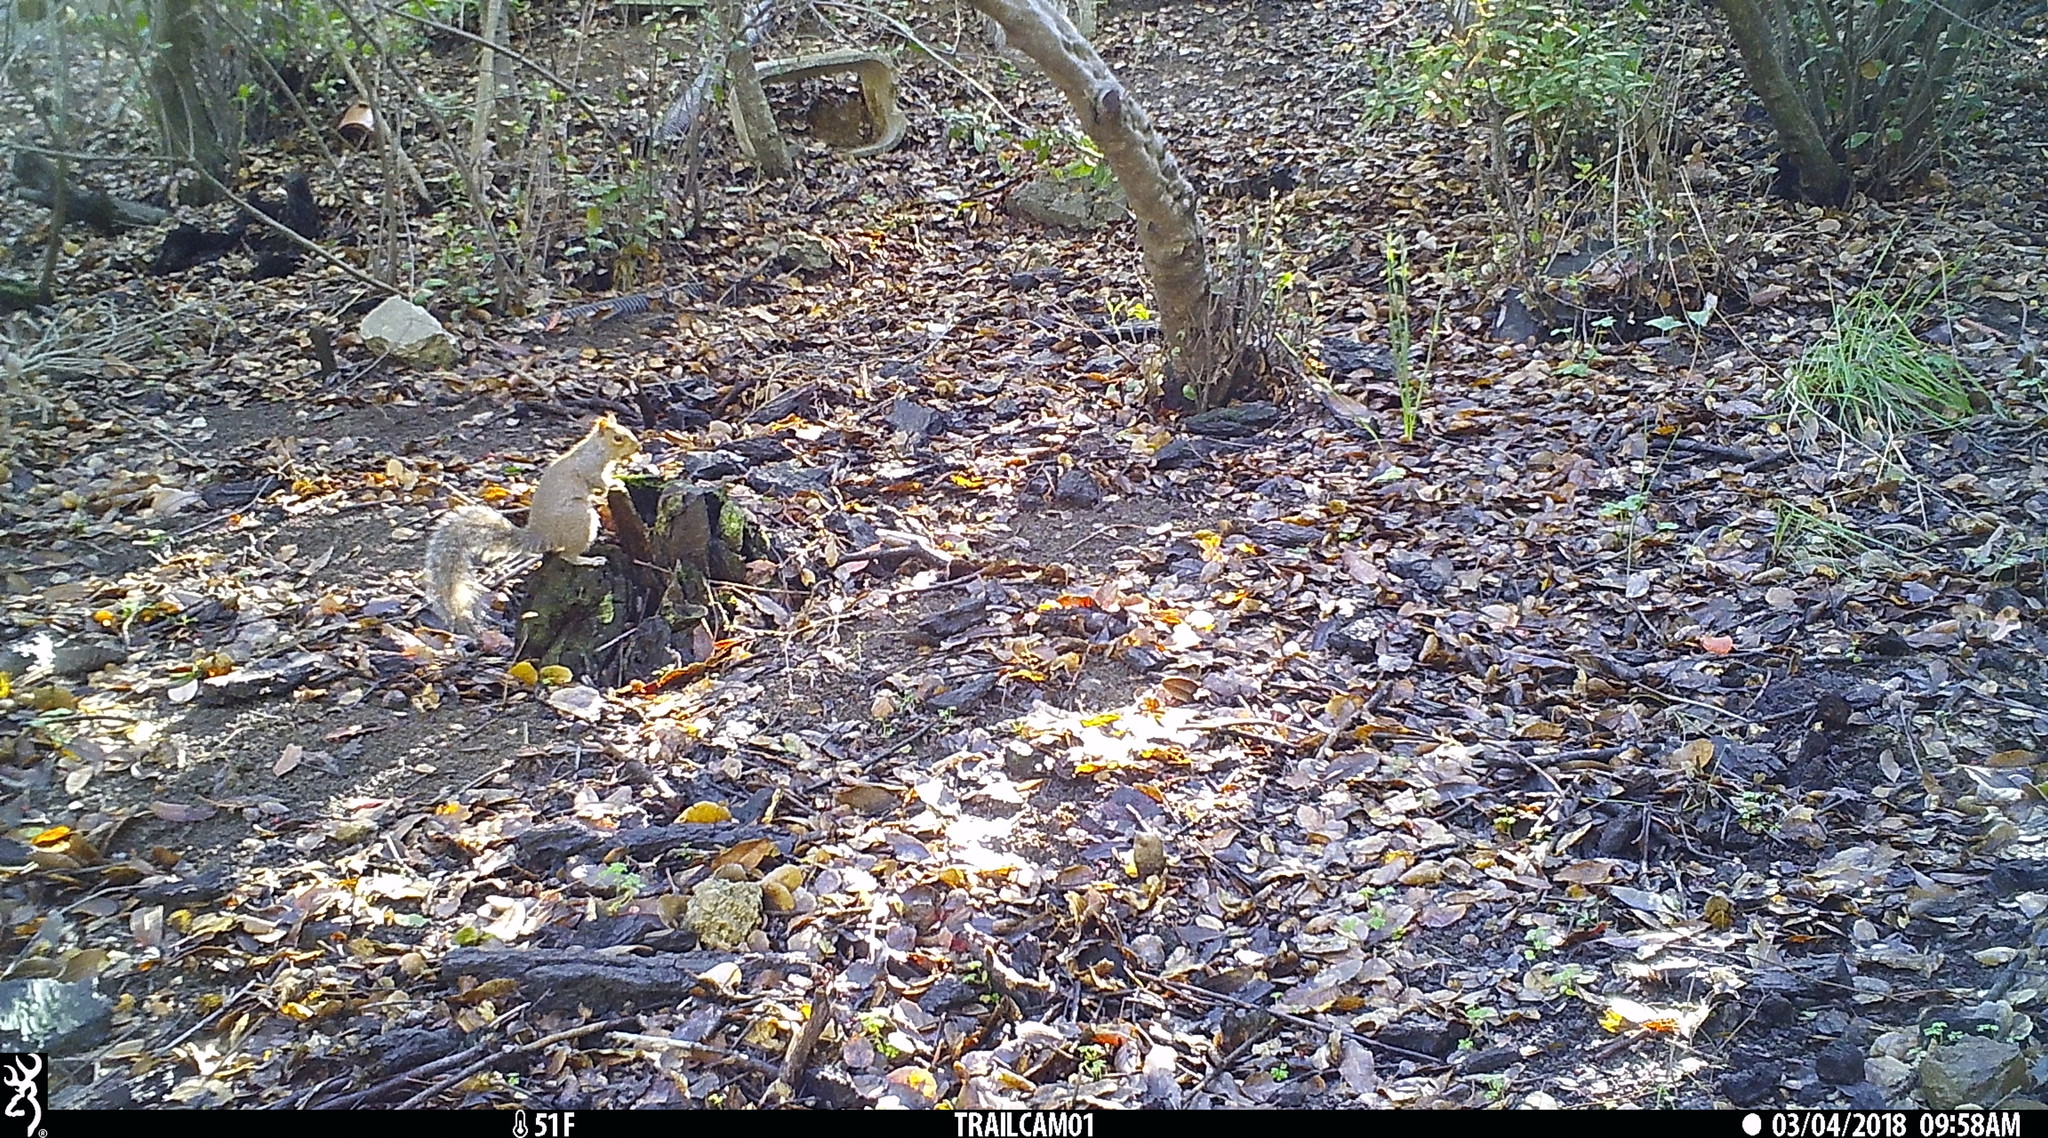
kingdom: Animalia
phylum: Chordata
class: Mammalia
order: Rodentia
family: Sciuridae
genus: Sciurus
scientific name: Sciurus carolinensis
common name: Eastern gray squirrel
